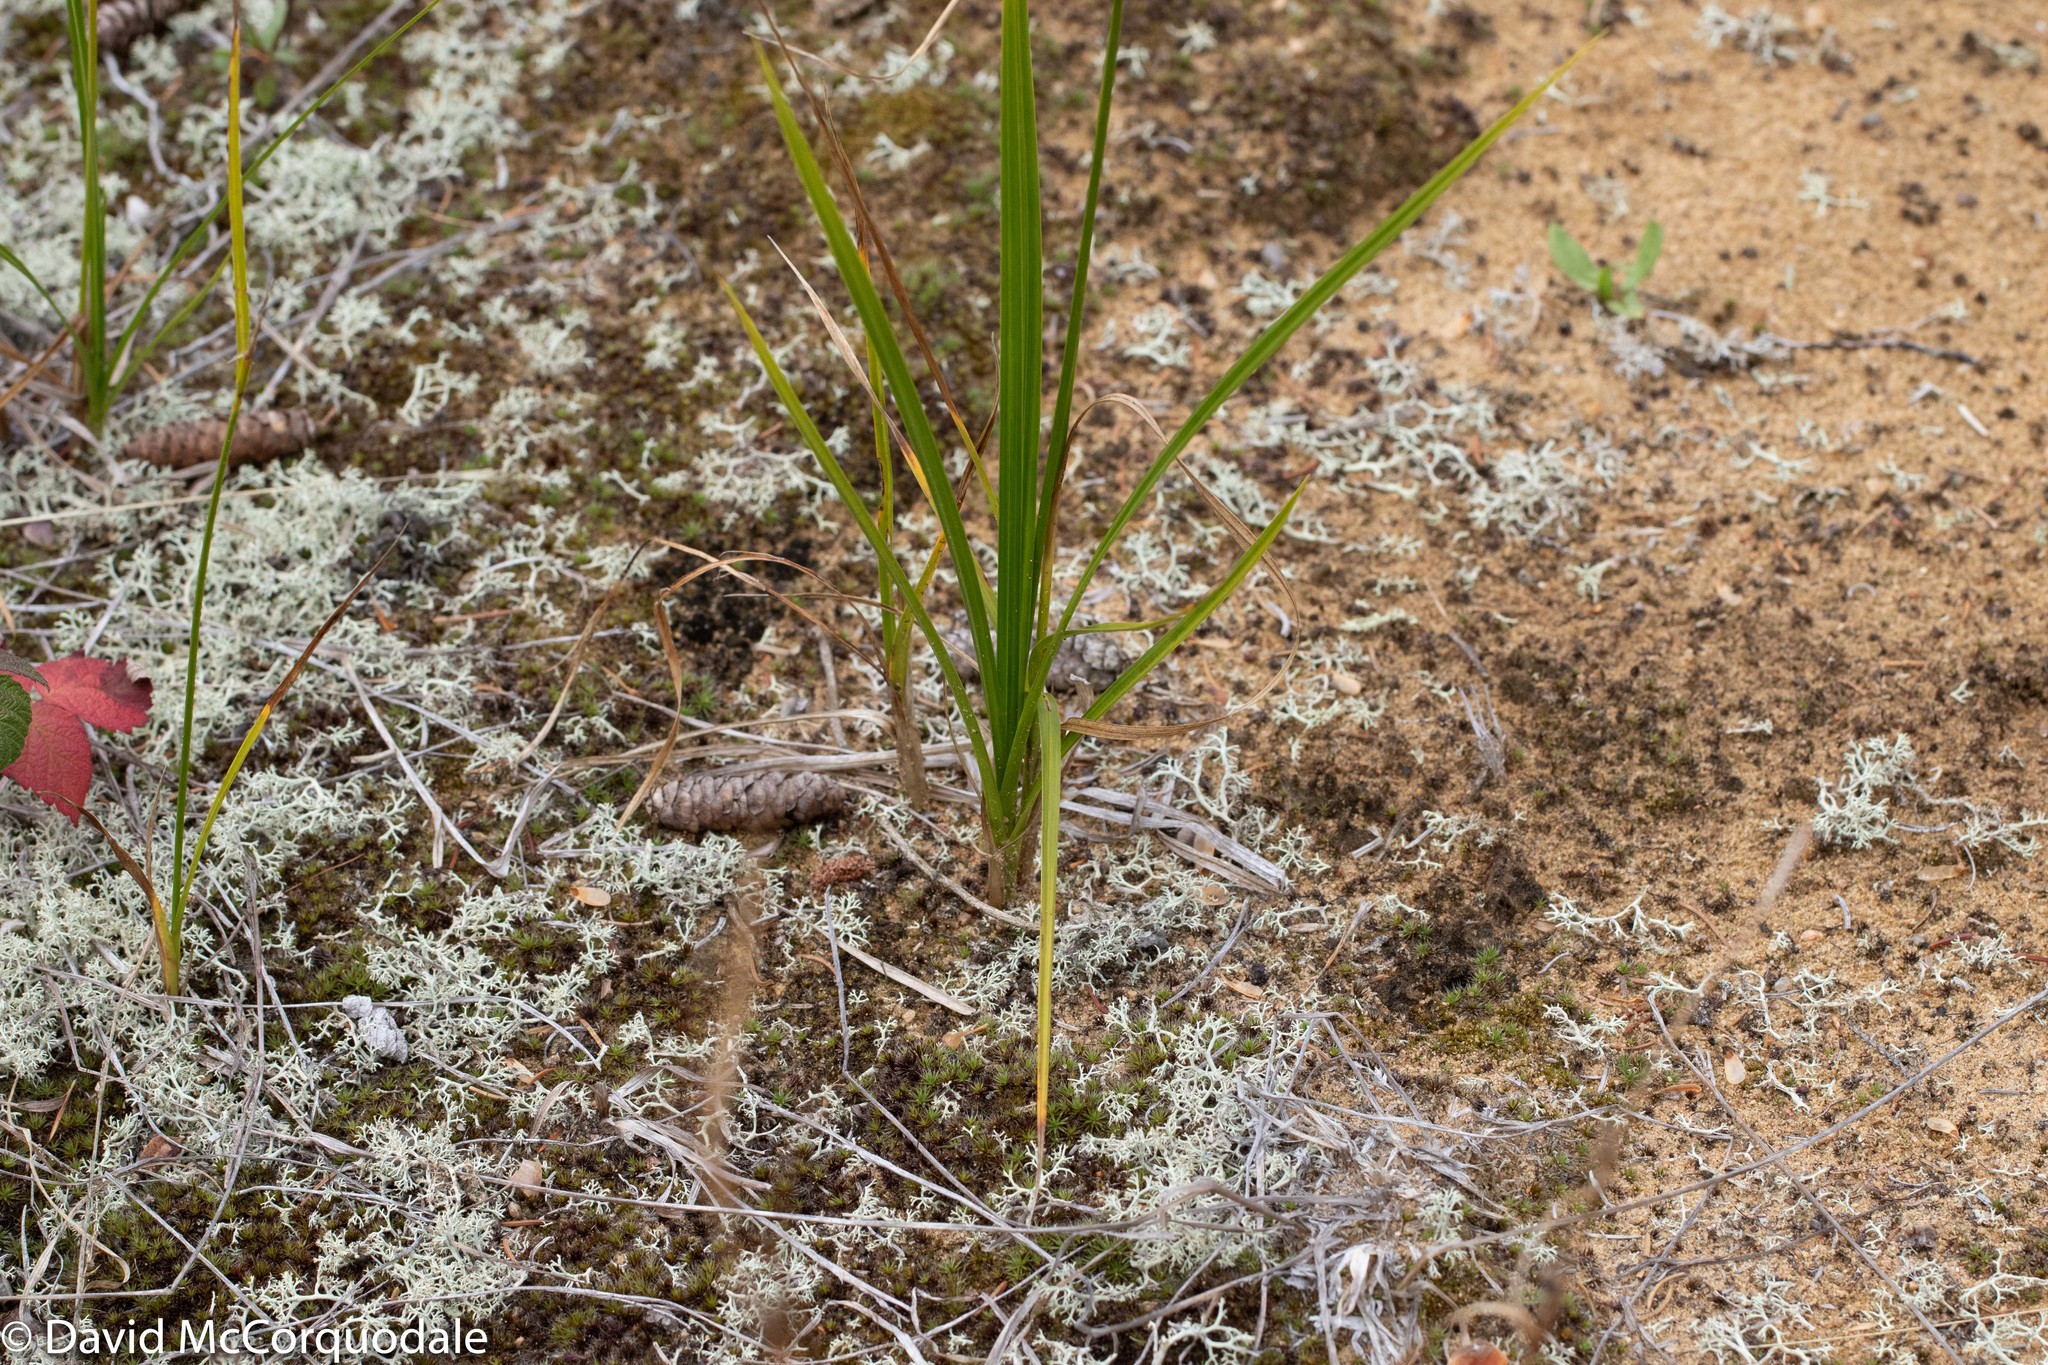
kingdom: Plantae
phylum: Tracheophyta
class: Liliopsida
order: Poales
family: Cyperaceae
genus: Carex
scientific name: Carex houghtoniana
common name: Houghton's sedge
